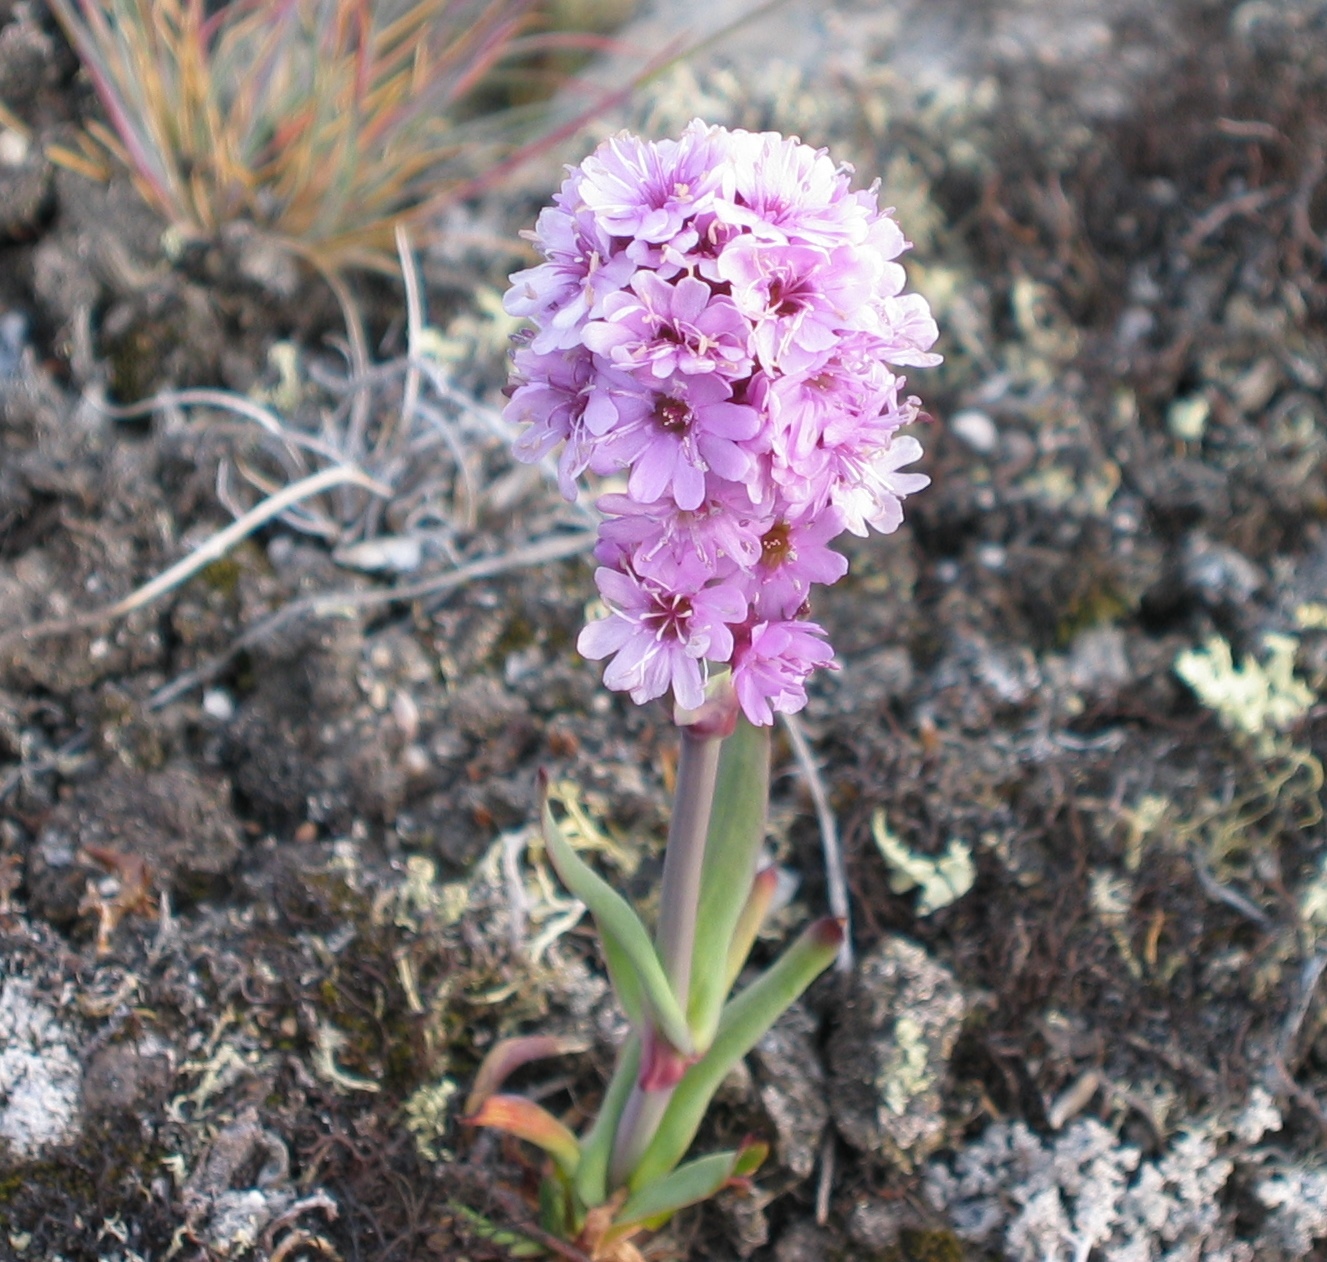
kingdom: Plantae
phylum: Tracheophyta
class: Magnoliopsida
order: Caryophyllales
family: Caryophyllaceae
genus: Viscaria
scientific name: Viscaria alpina
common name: Alpine campion
